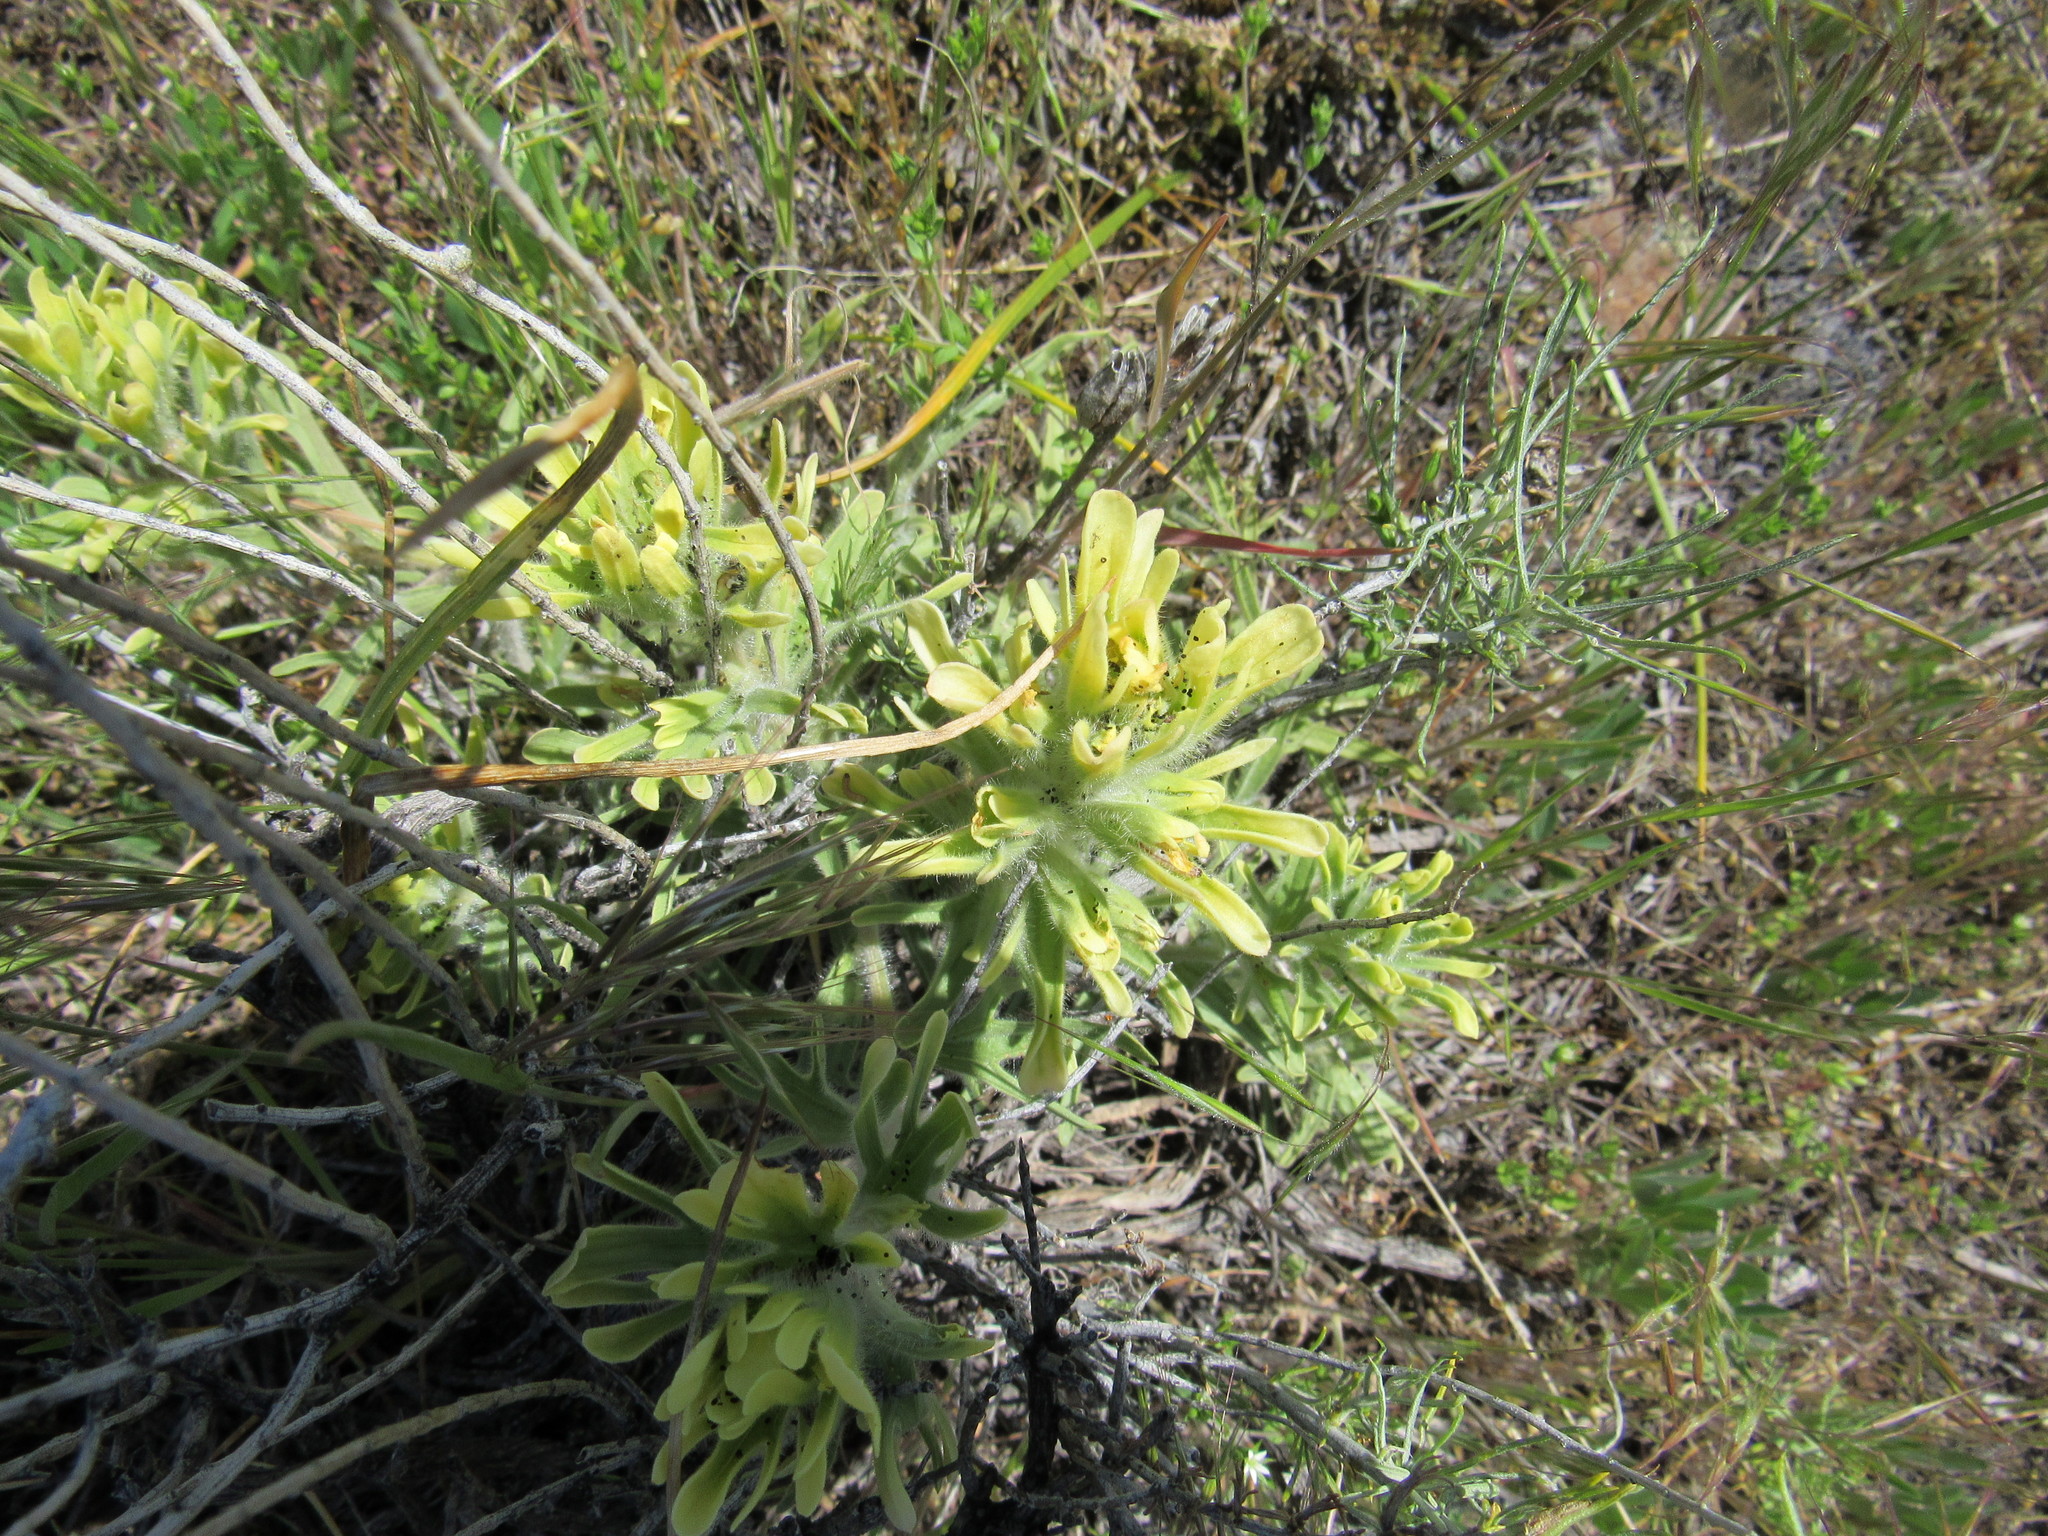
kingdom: Plantae
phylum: Tracheophyta
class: Magnoliopsida
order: Lamiales
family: Orobanchaceae
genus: Castilleja
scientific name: Castilleja chromosa
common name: Desert paintbrush
